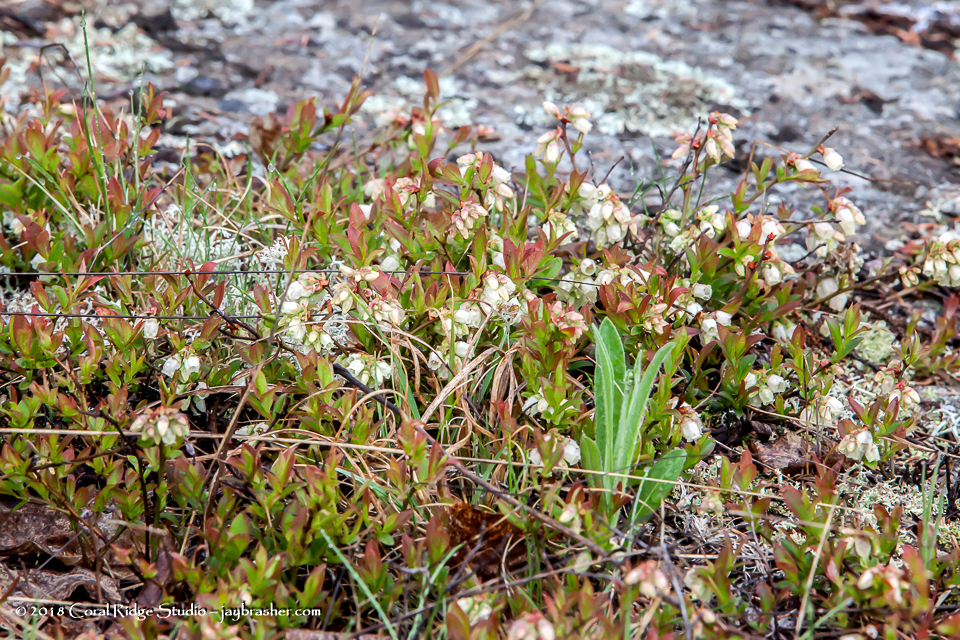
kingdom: Plantae
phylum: Tracheophyta
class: Magnoliopsida
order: Ericales
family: Ericaceae
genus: Vaccinium
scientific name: Vaccinium angustifolium
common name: Early lowbush blueberry
